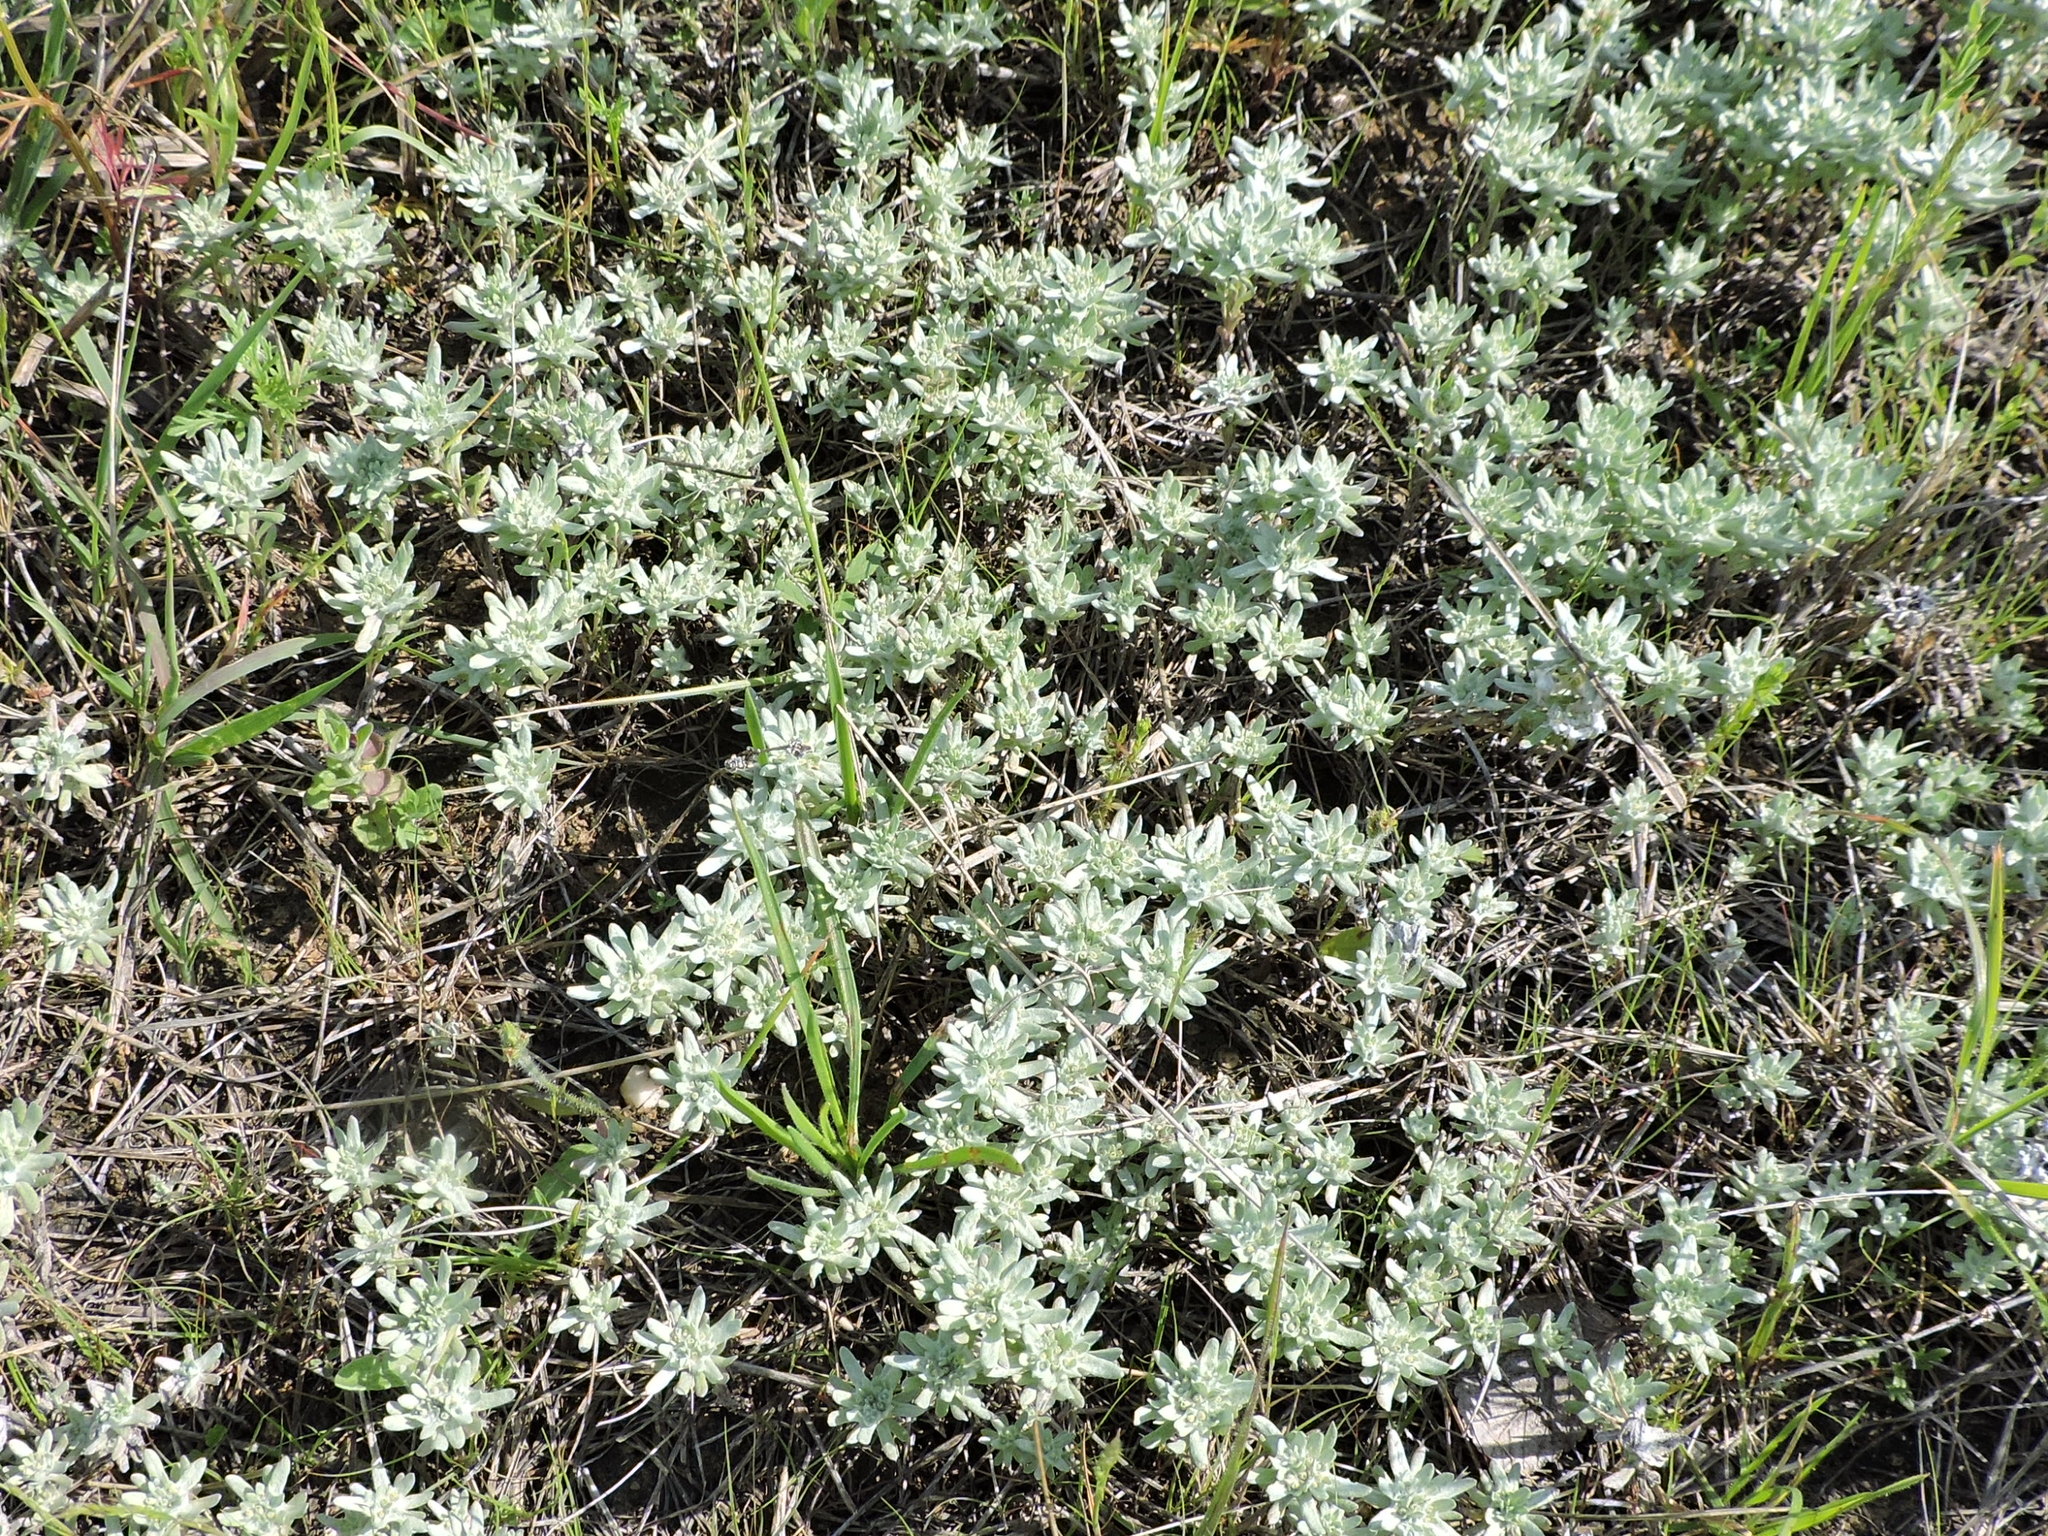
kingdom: Plantae
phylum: Tracheophyta
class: Magnoliopsida
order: Asterales
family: Asteraceae
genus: Diaperia
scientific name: Diaperia prolifera
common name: Big-head rabbit-tobacco
